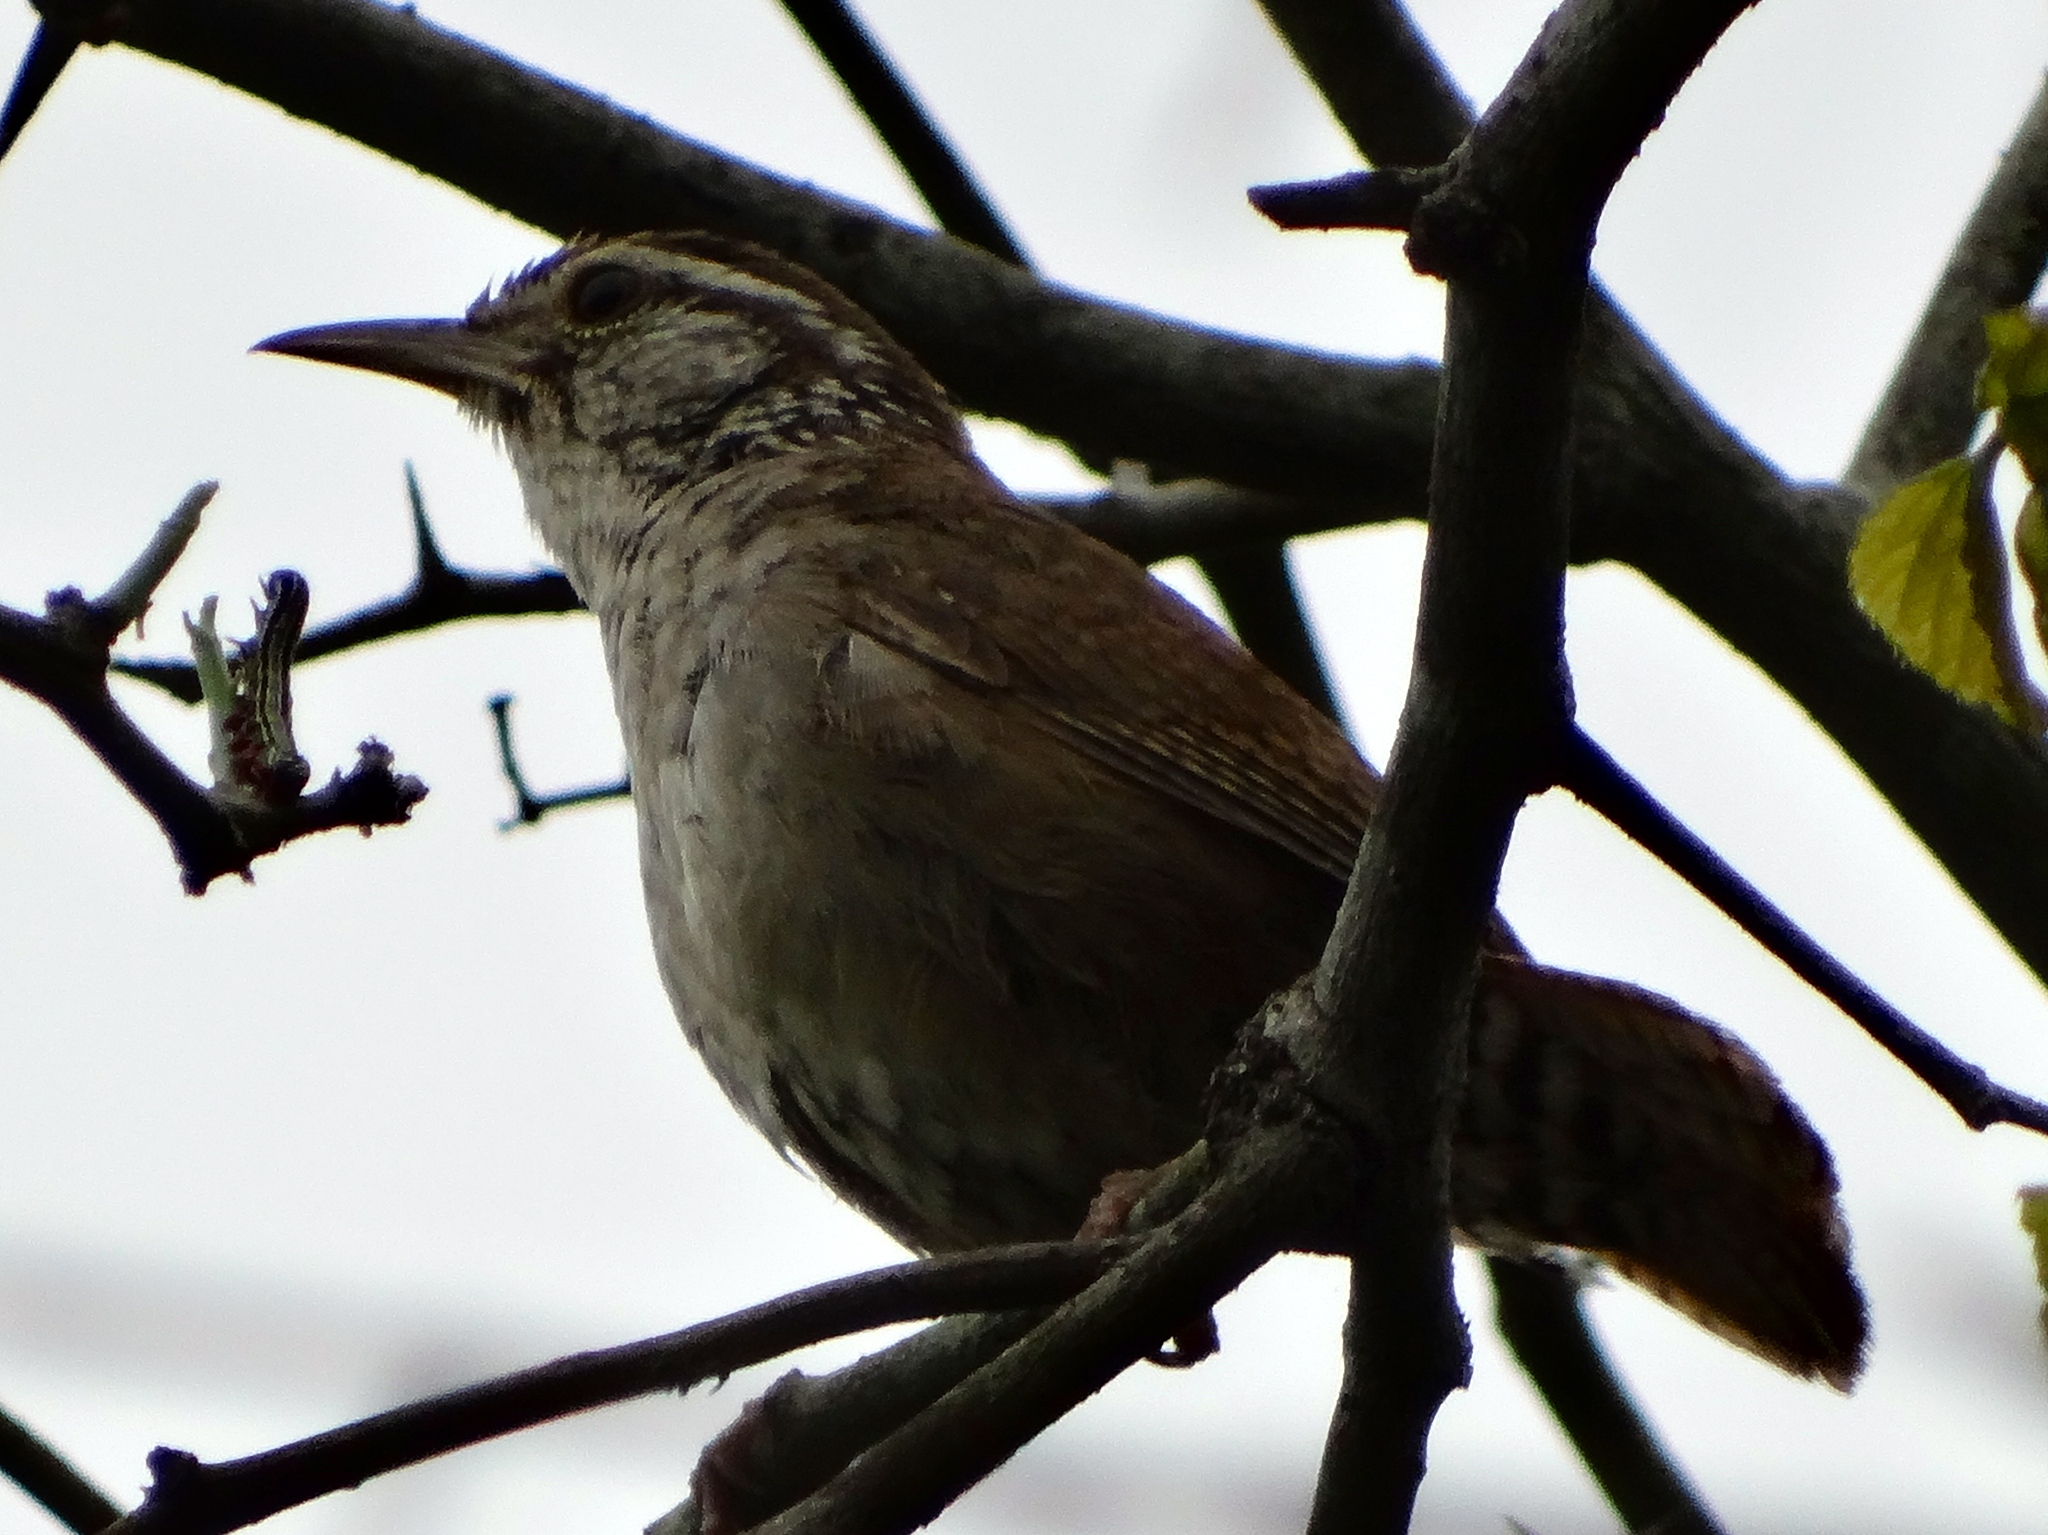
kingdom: Animalia
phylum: Chordata
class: Aves
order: Passeriformes
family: Troglodytidae
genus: Thryophilus
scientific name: Thryophilus sinaloa
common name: Sinaloa wren
